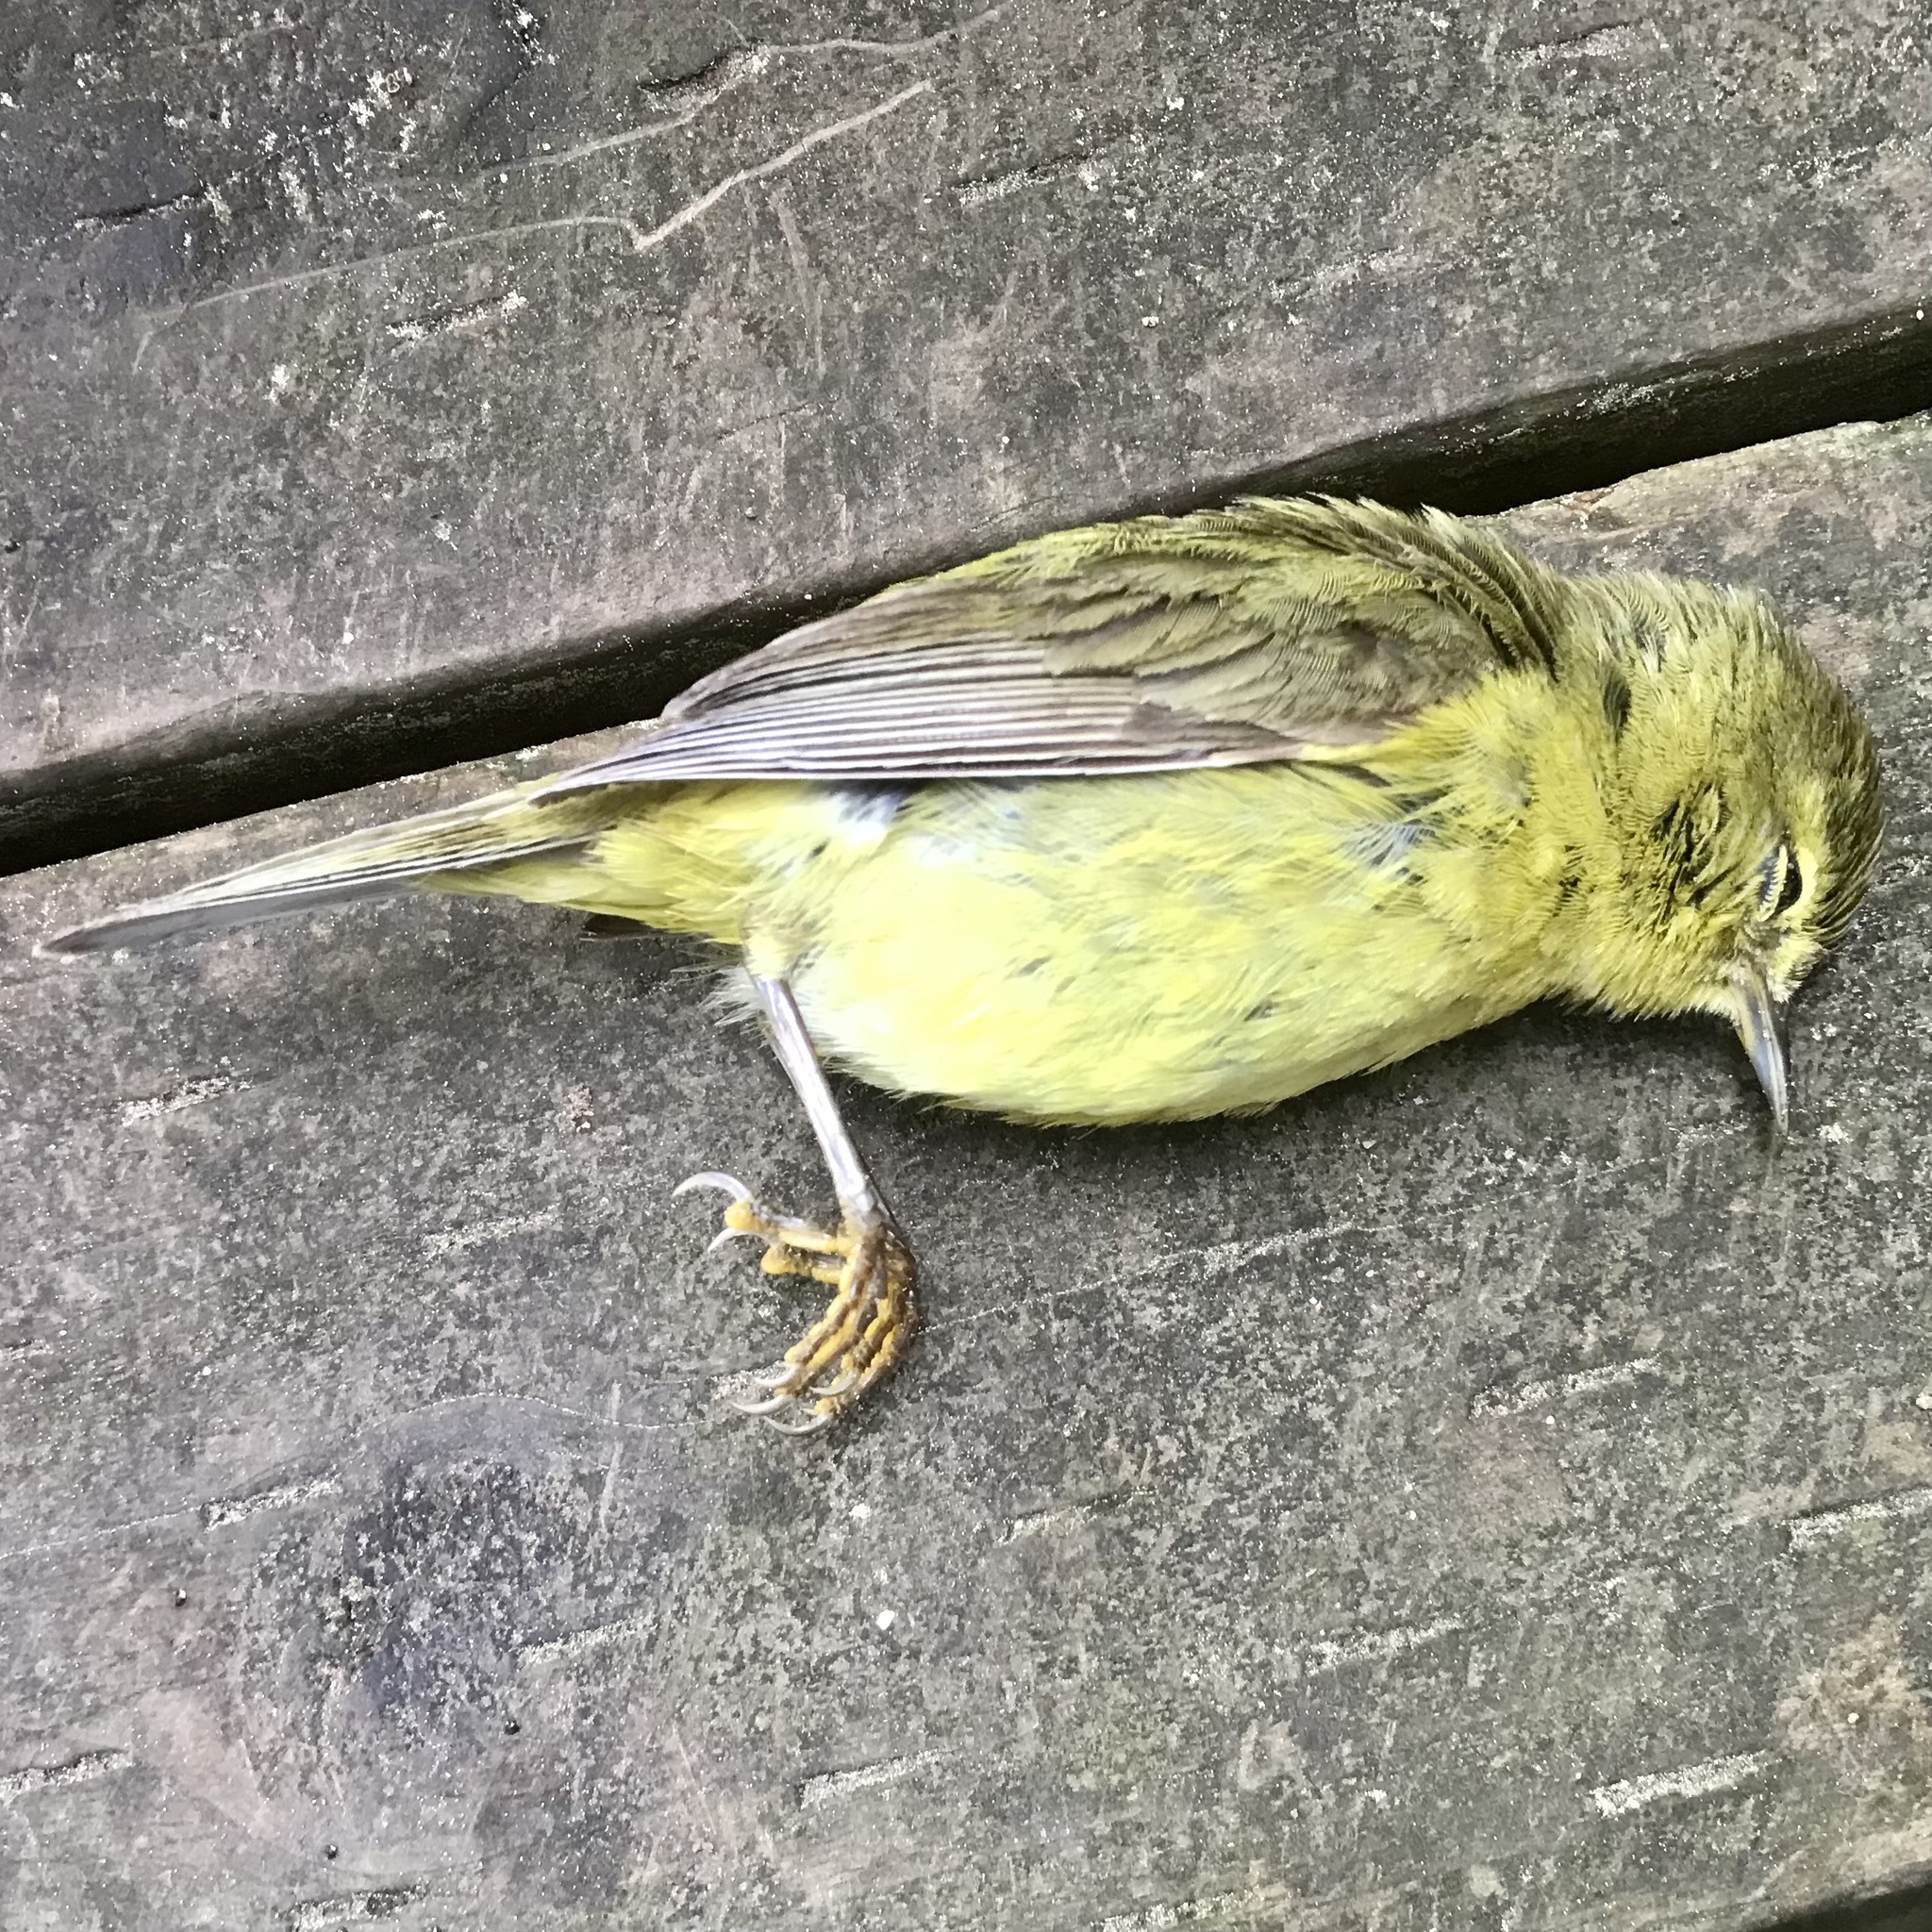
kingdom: Animalia
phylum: Chordata
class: Aves
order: Passeriformes
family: Parulidae
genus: Leiothlypis
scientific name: Leiothlypis celata
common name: Orange-crowned warbler
